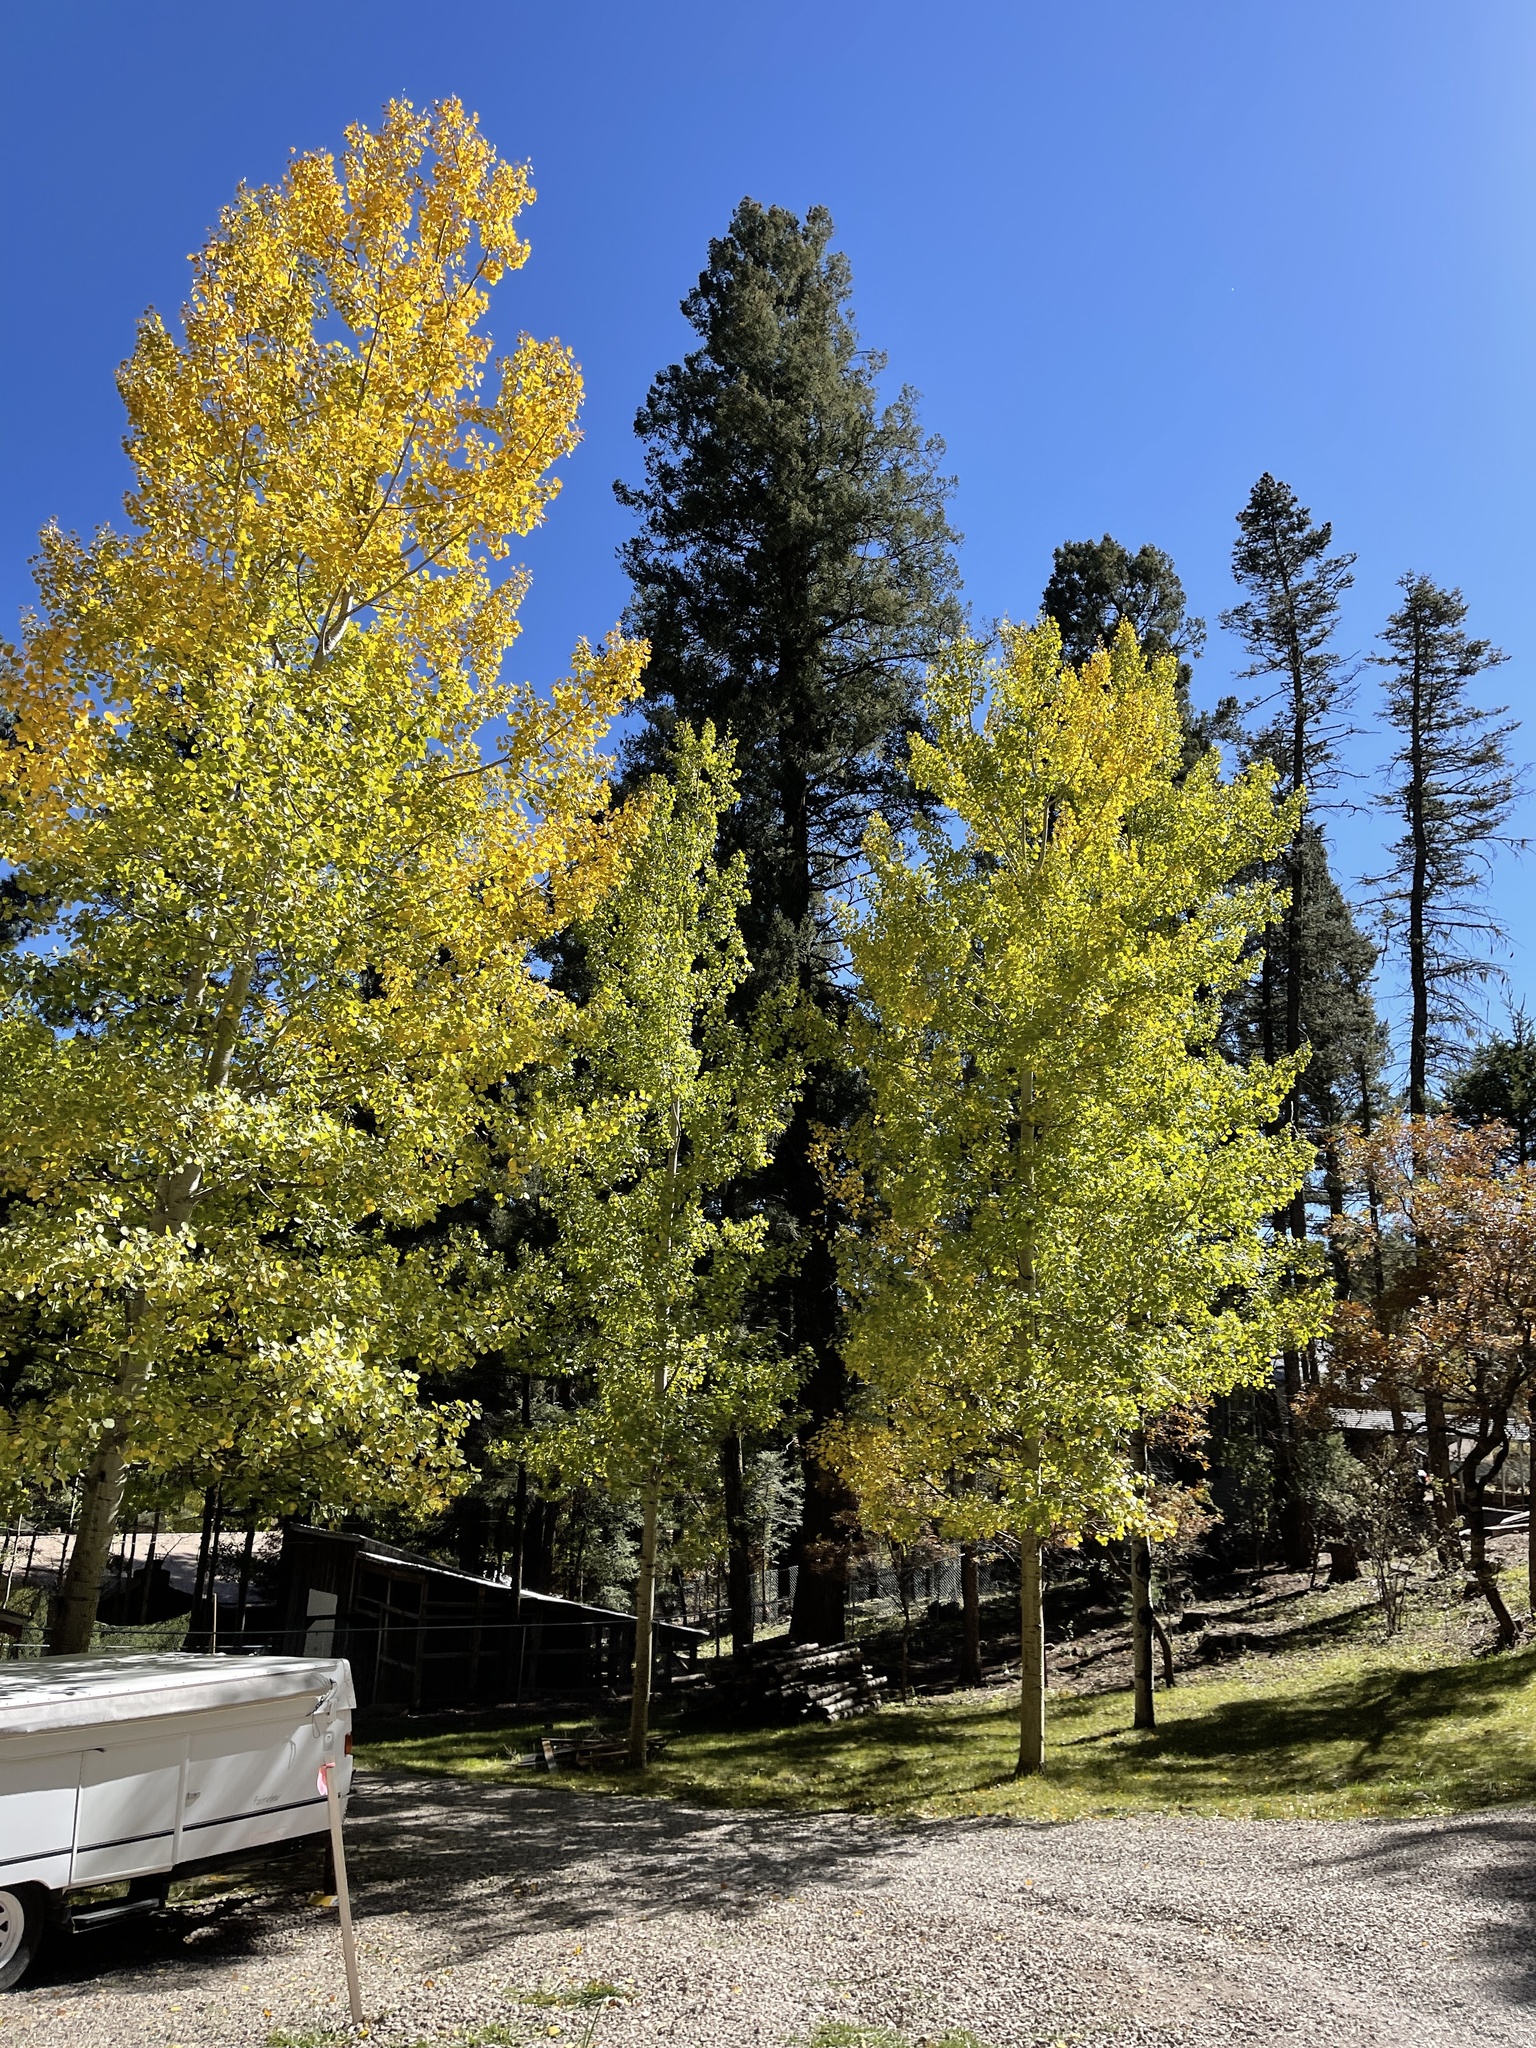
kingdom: Plantae
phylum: Tracheophyta
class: Magnoliopsida
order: Malpighiales
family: Salicaceae
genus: Populus
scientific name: Populus tremuloides
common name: Quaking aspen
